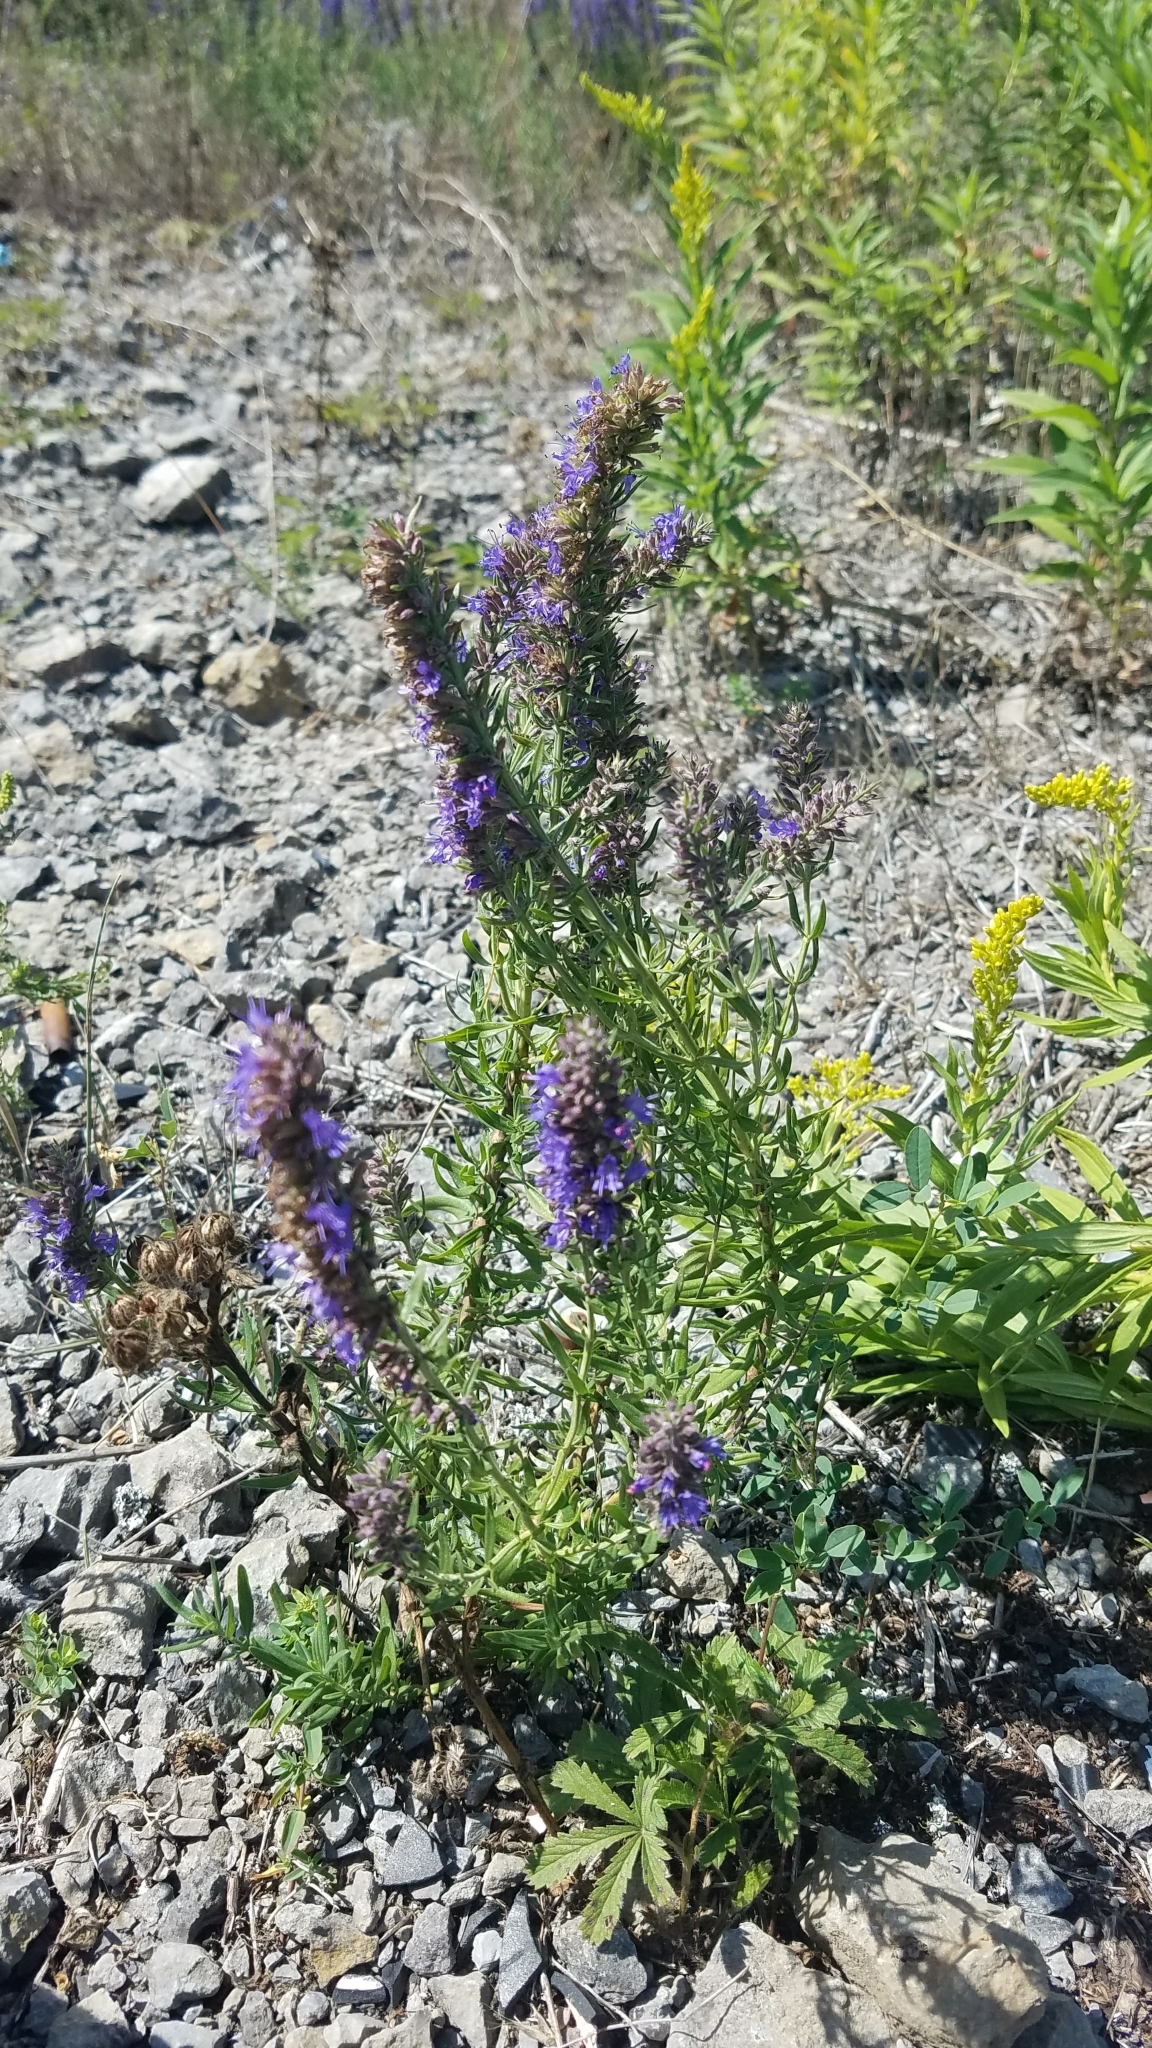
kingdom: Plantae
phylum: Tracheophyta
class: Magnoliopsida
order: Lamiales
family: Lamiaceae
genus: Hyssopus
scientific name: Hyssopus officinalis
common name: Hyssop
